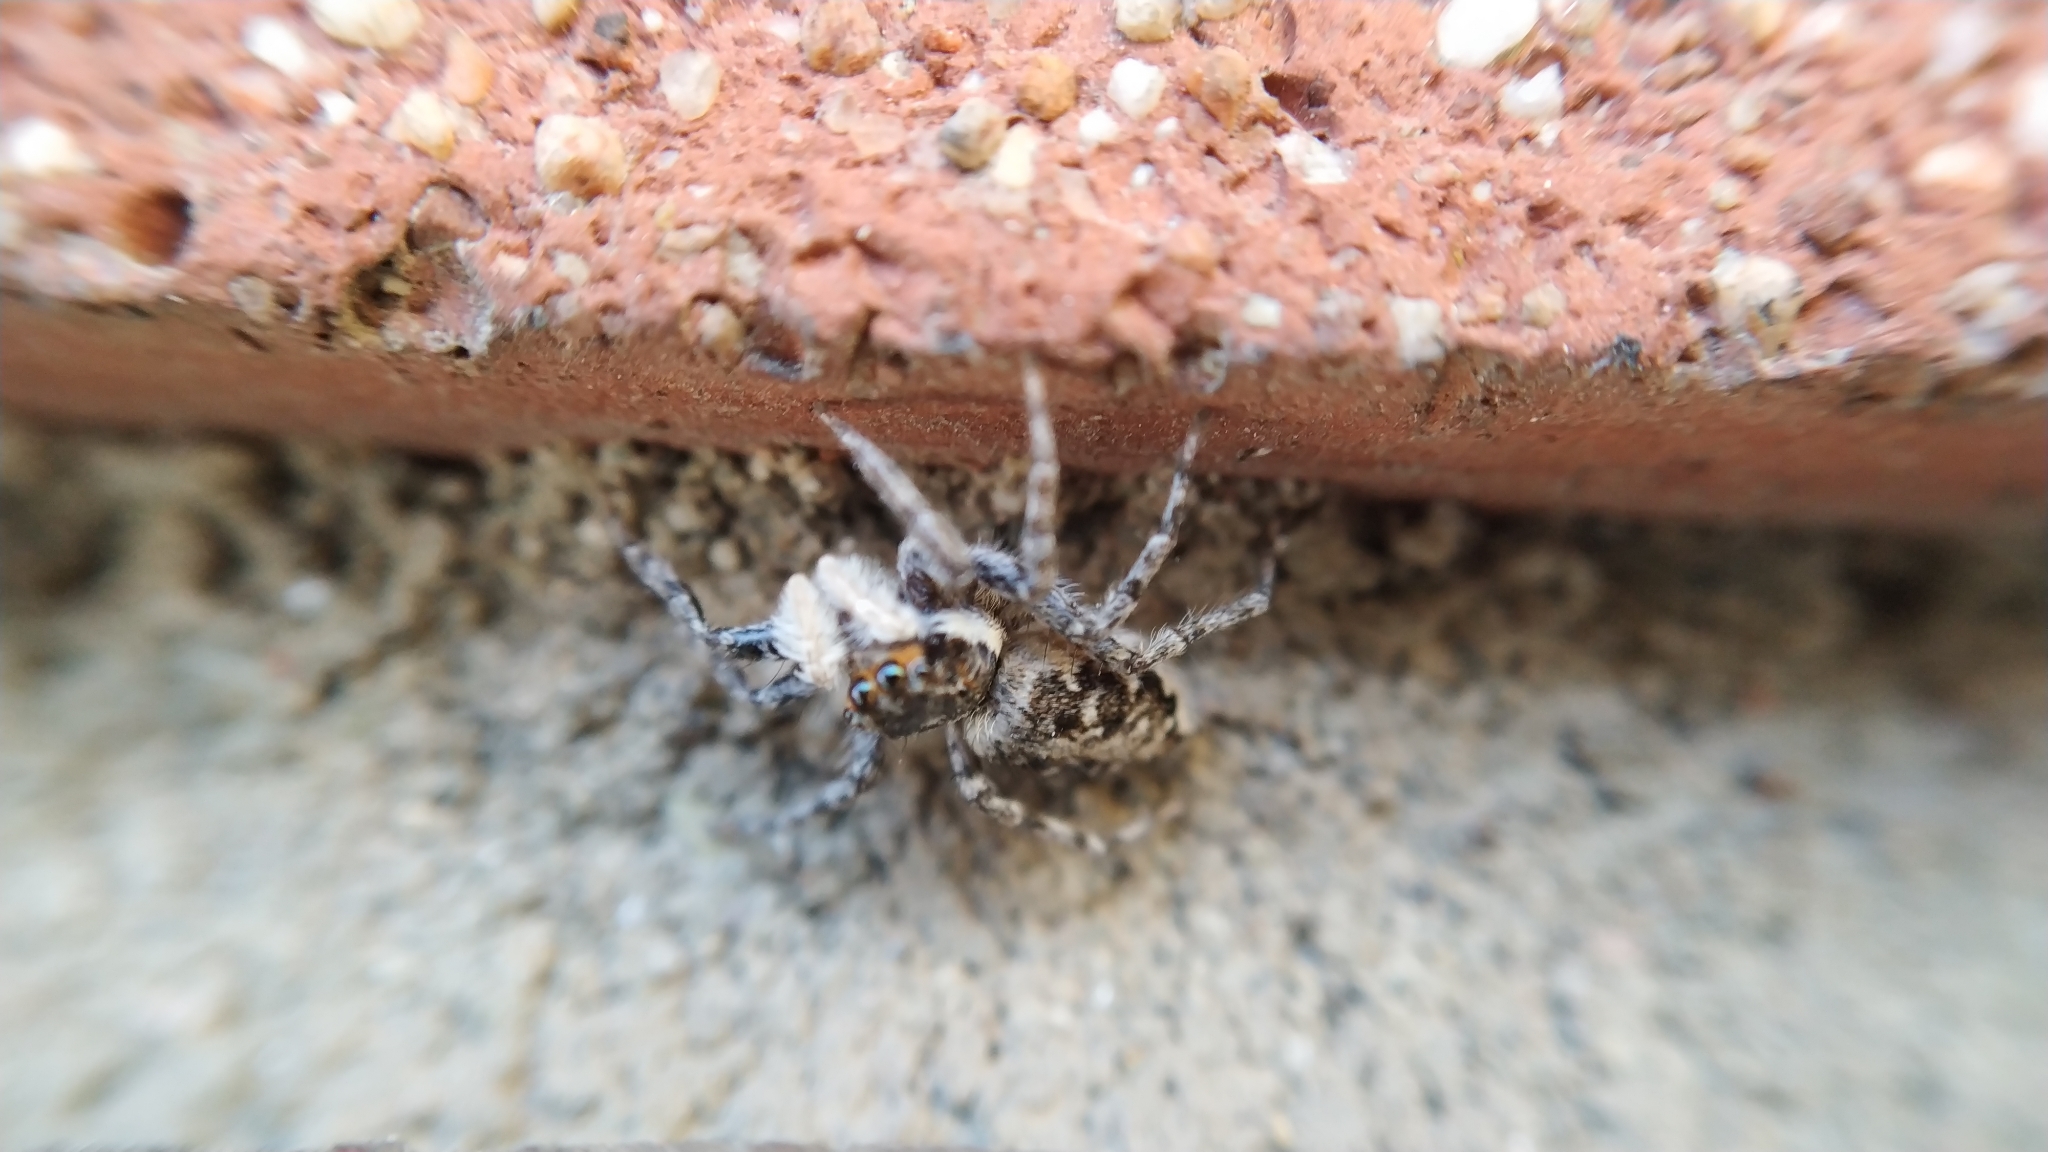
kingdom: Animalia
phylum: Arthropoda
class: Arachnida
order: Araneae
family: Salticidae
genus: Menemerus
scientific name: Menemerus semilimbatus
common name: Jumping spider
